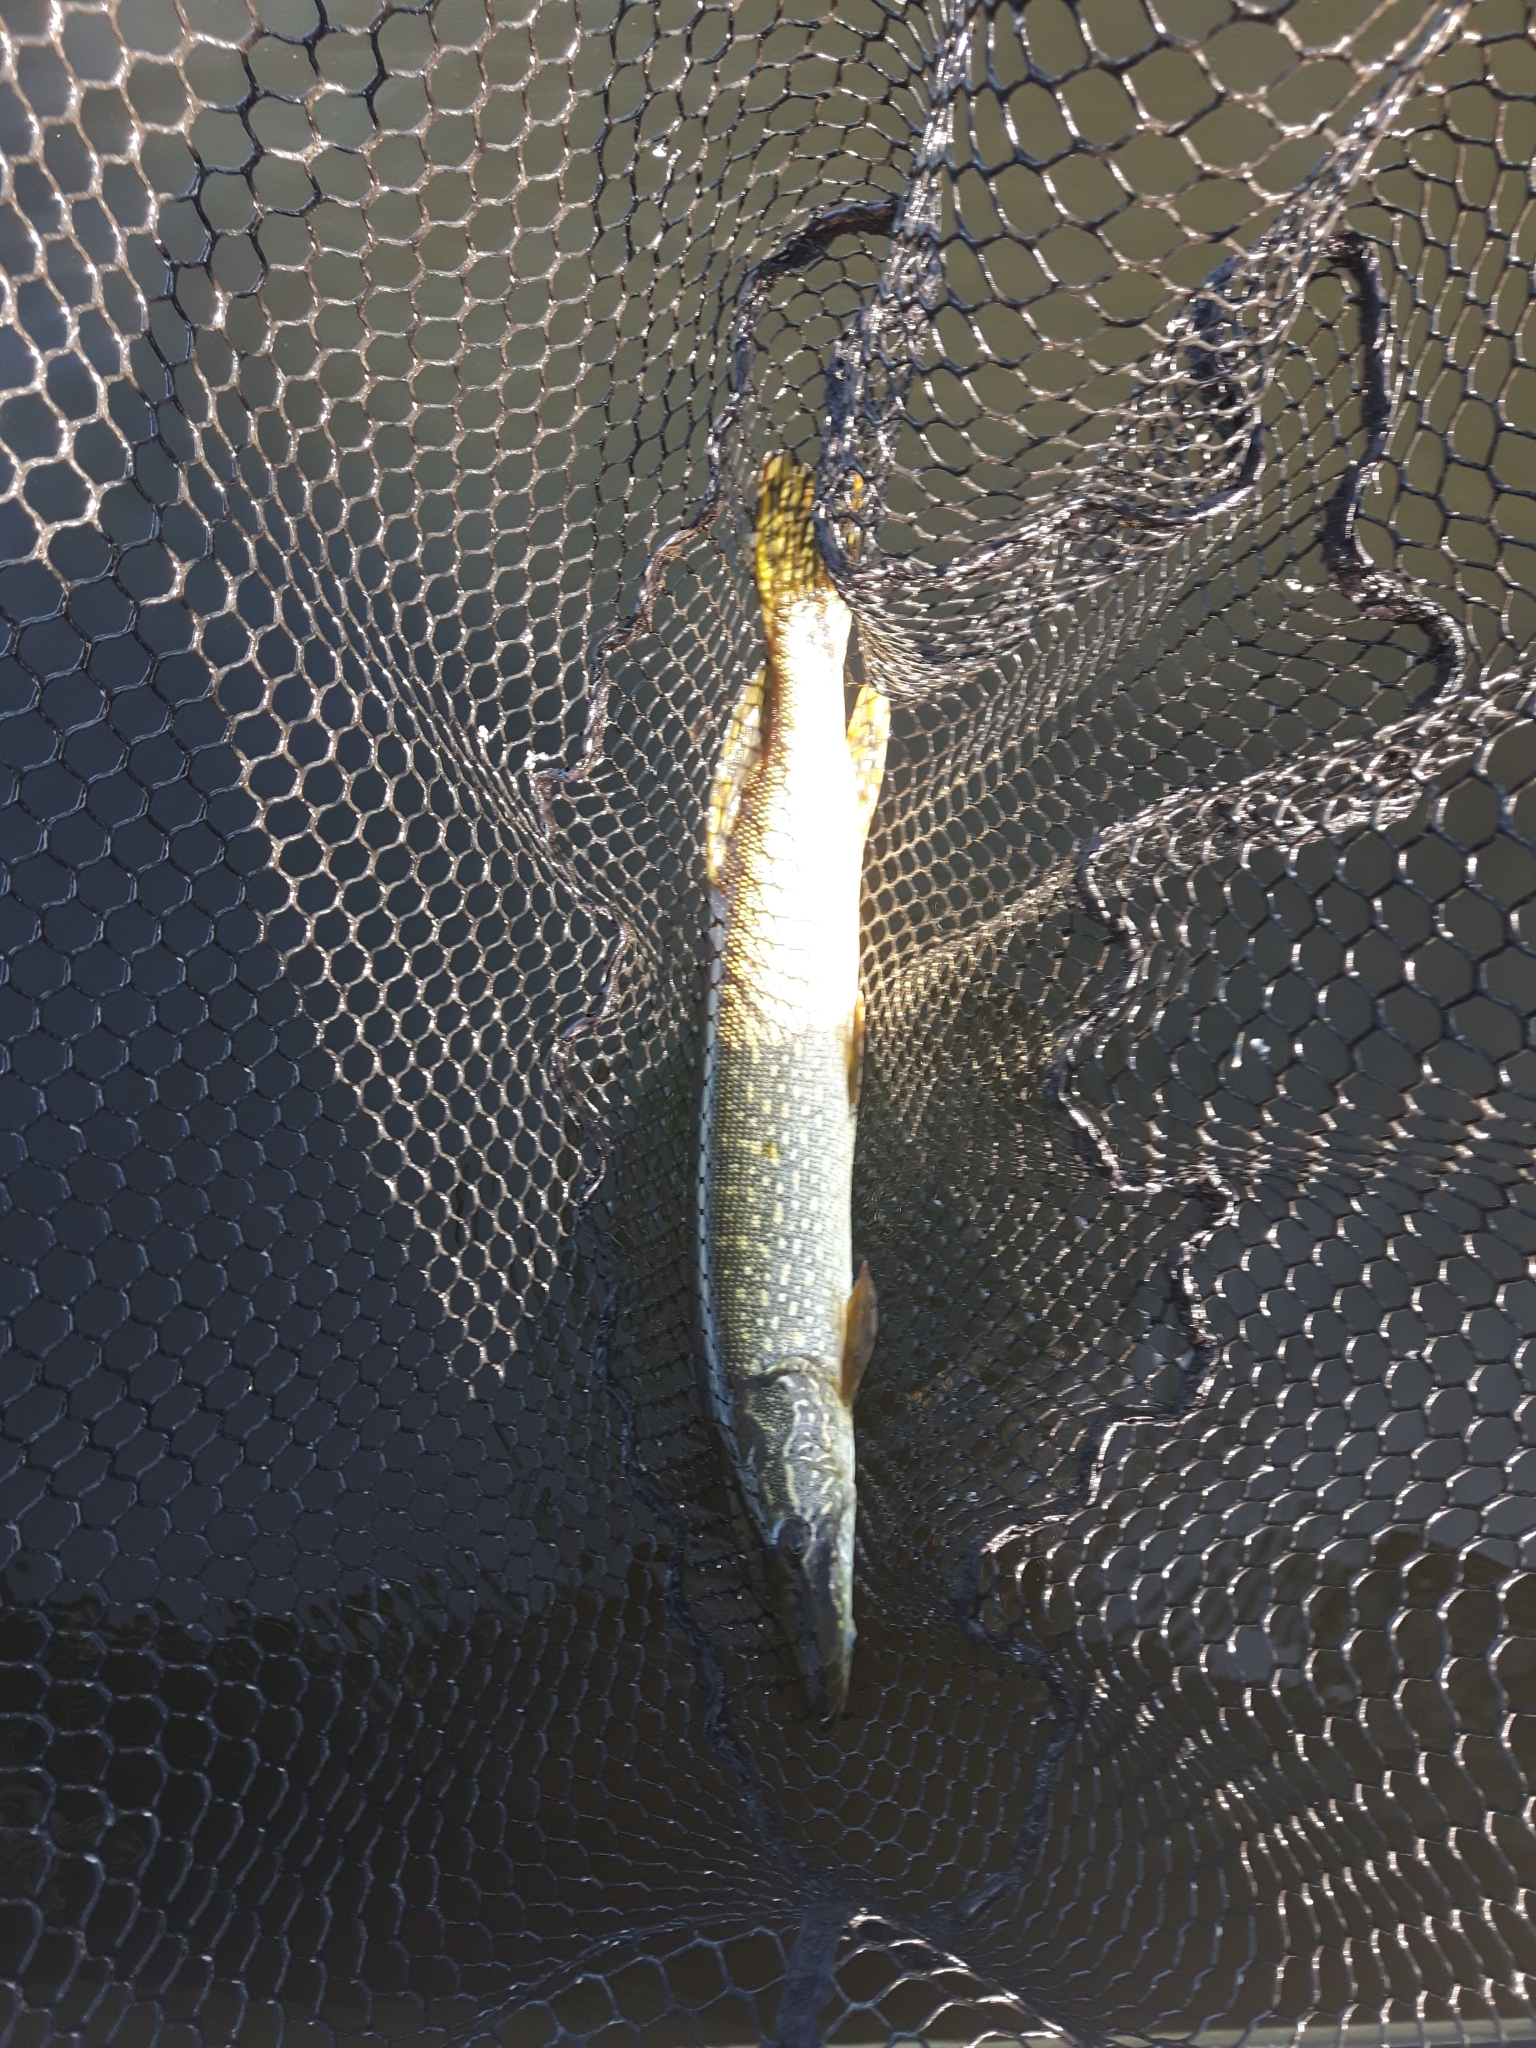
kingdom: Animalia
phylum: Chordata
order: Esociformes
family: Esocidae
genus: Esox
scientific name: Esox lucius
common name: Northern pike
